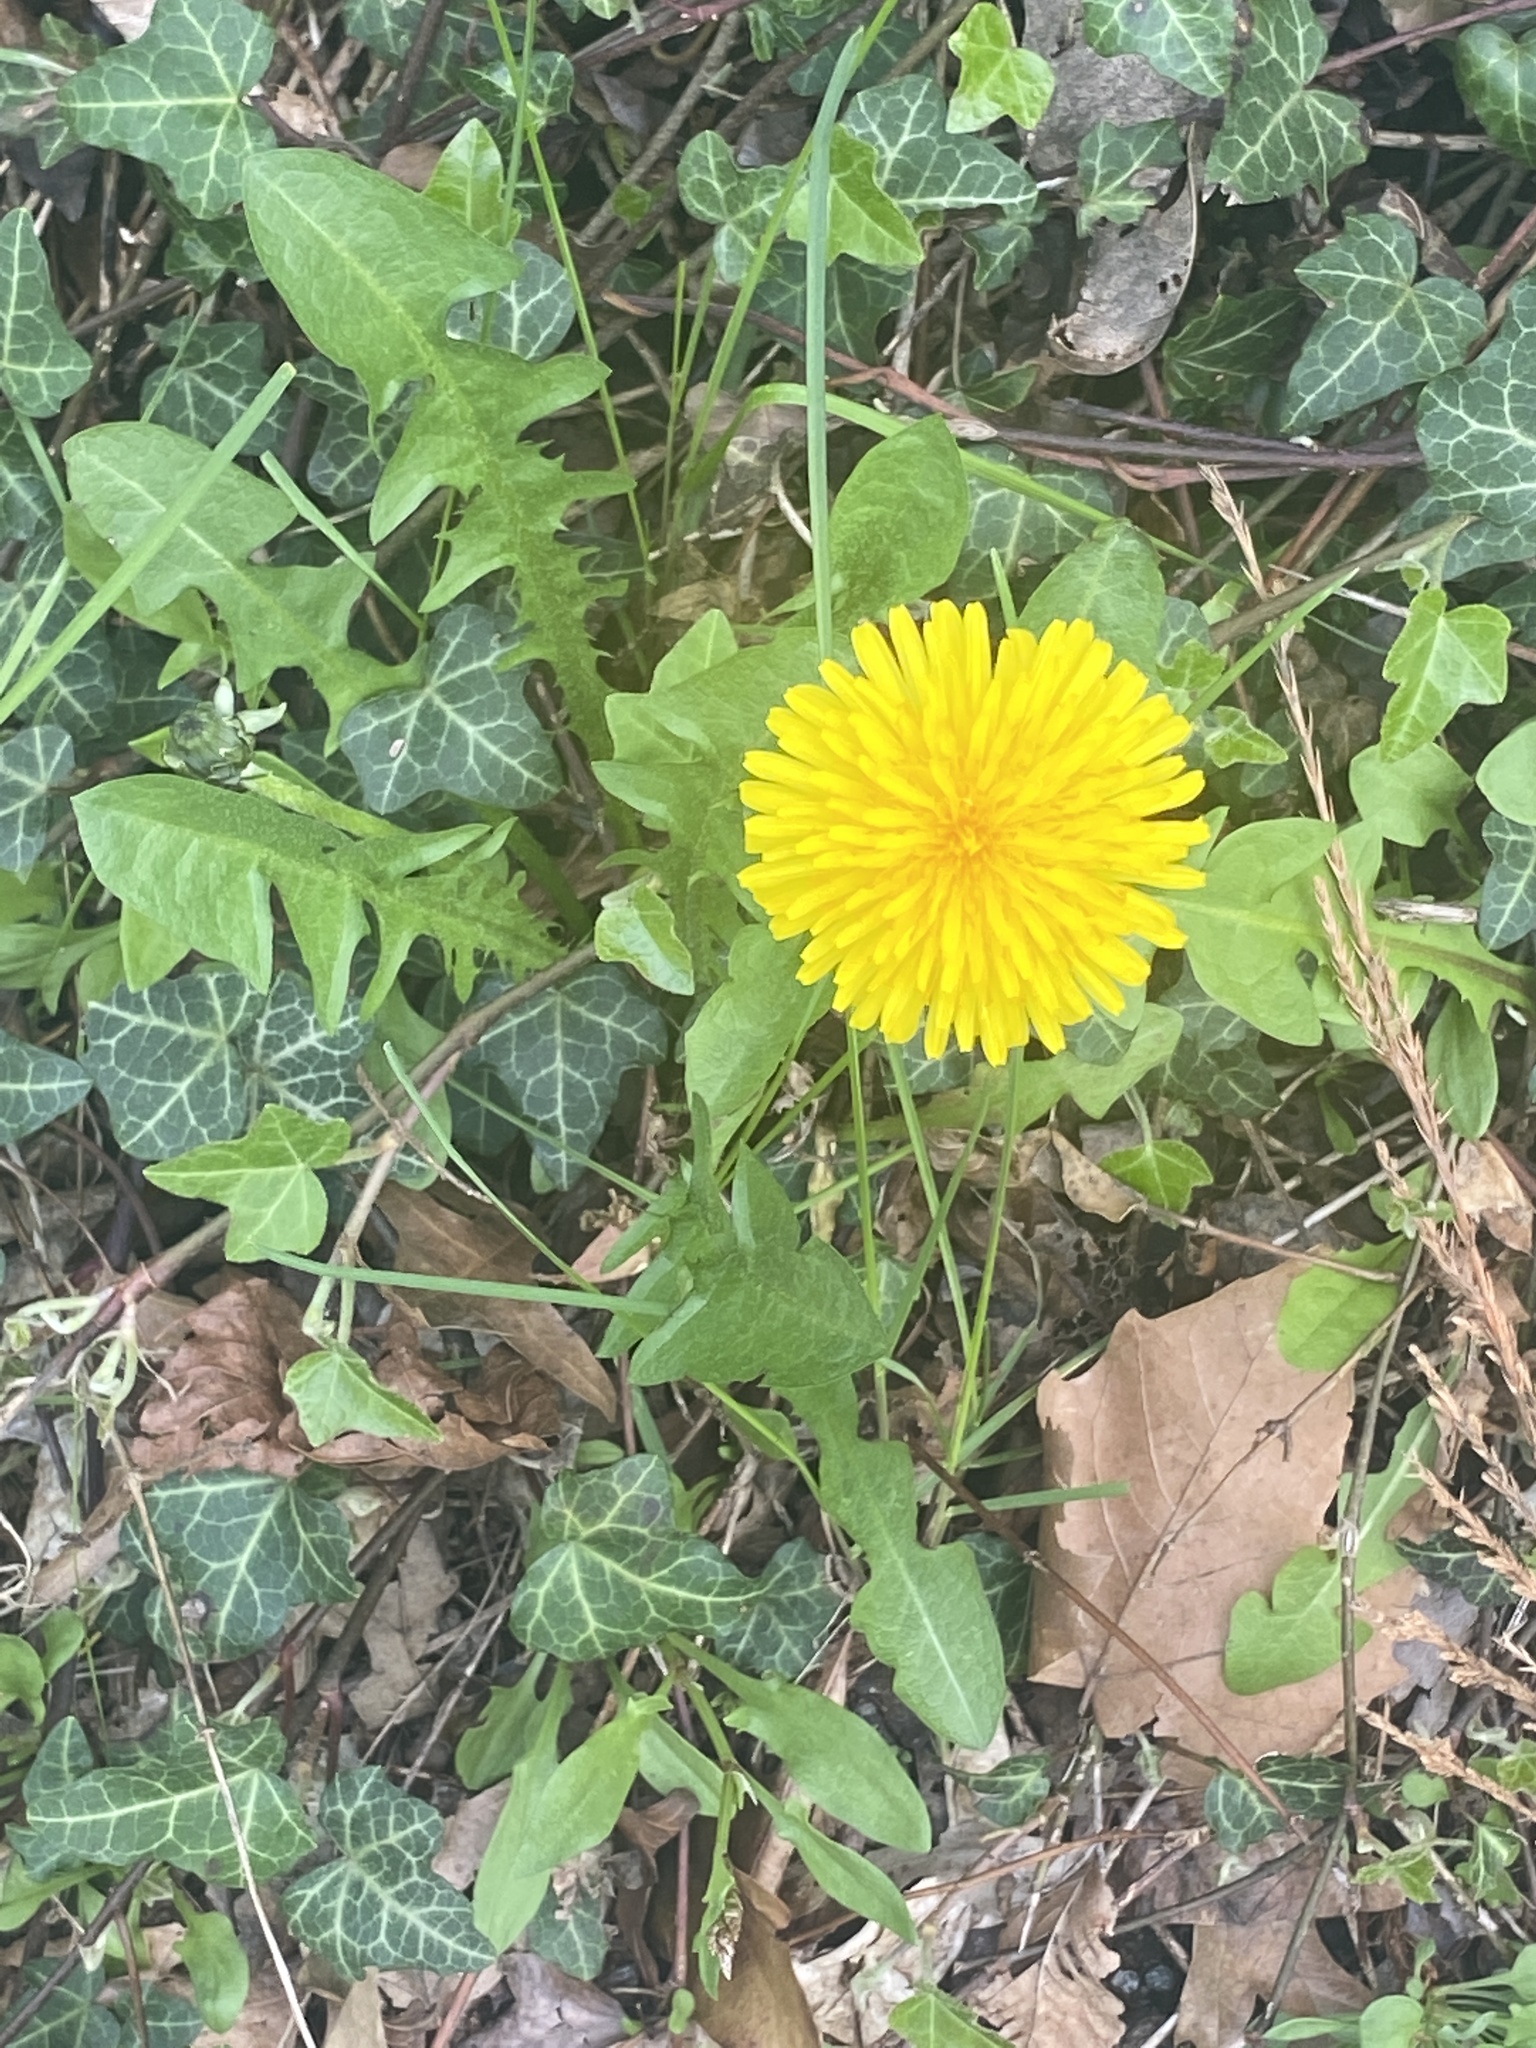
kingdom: Plantae
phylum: Tracheophyta
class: Magnoliopsida
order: Asterales
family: Asteraceae
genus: Taraxacum
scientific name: Taraxacum officinale
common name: Common dandelion
